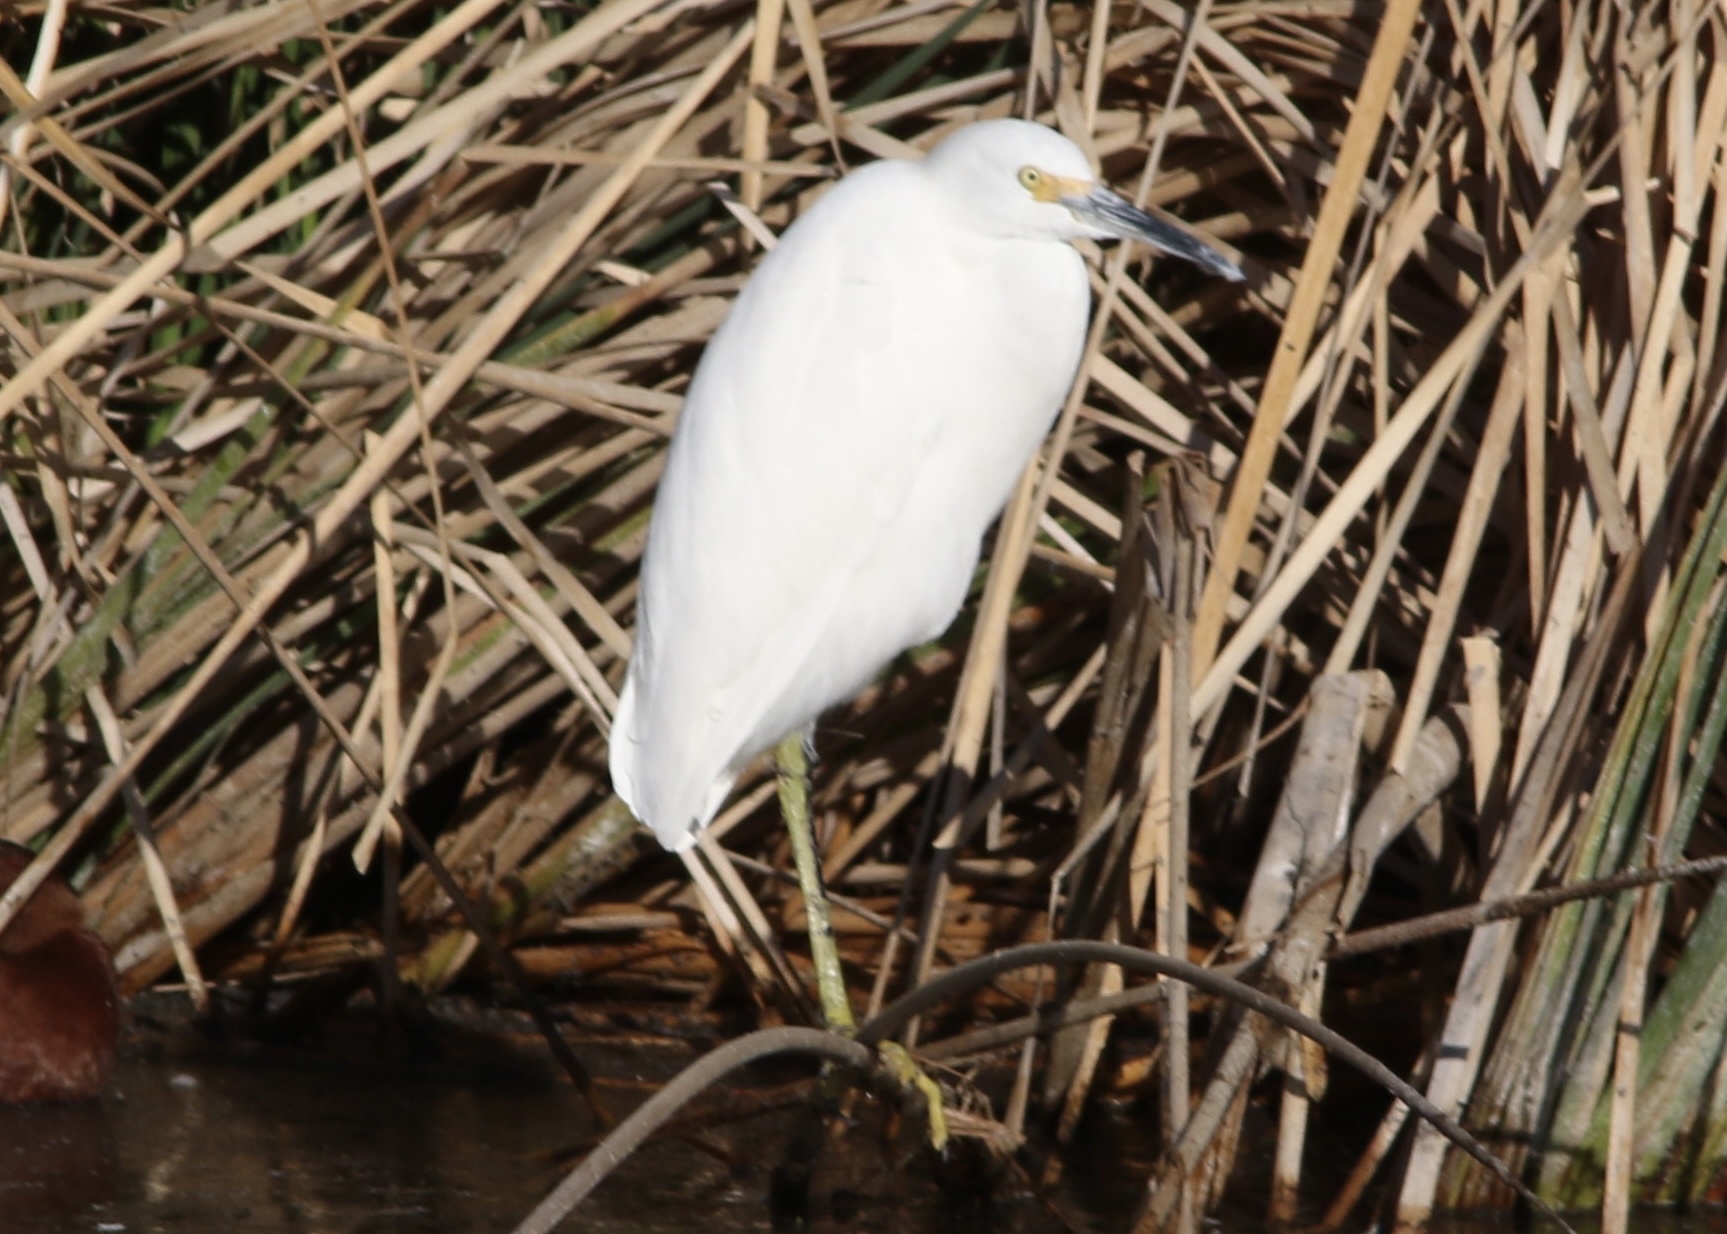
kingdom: Animalia
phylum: Chordata
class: Aves
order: Pelecaniformes
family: Ardeidae
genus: Egretta
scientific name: Egretta thula
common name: Snowy egret
